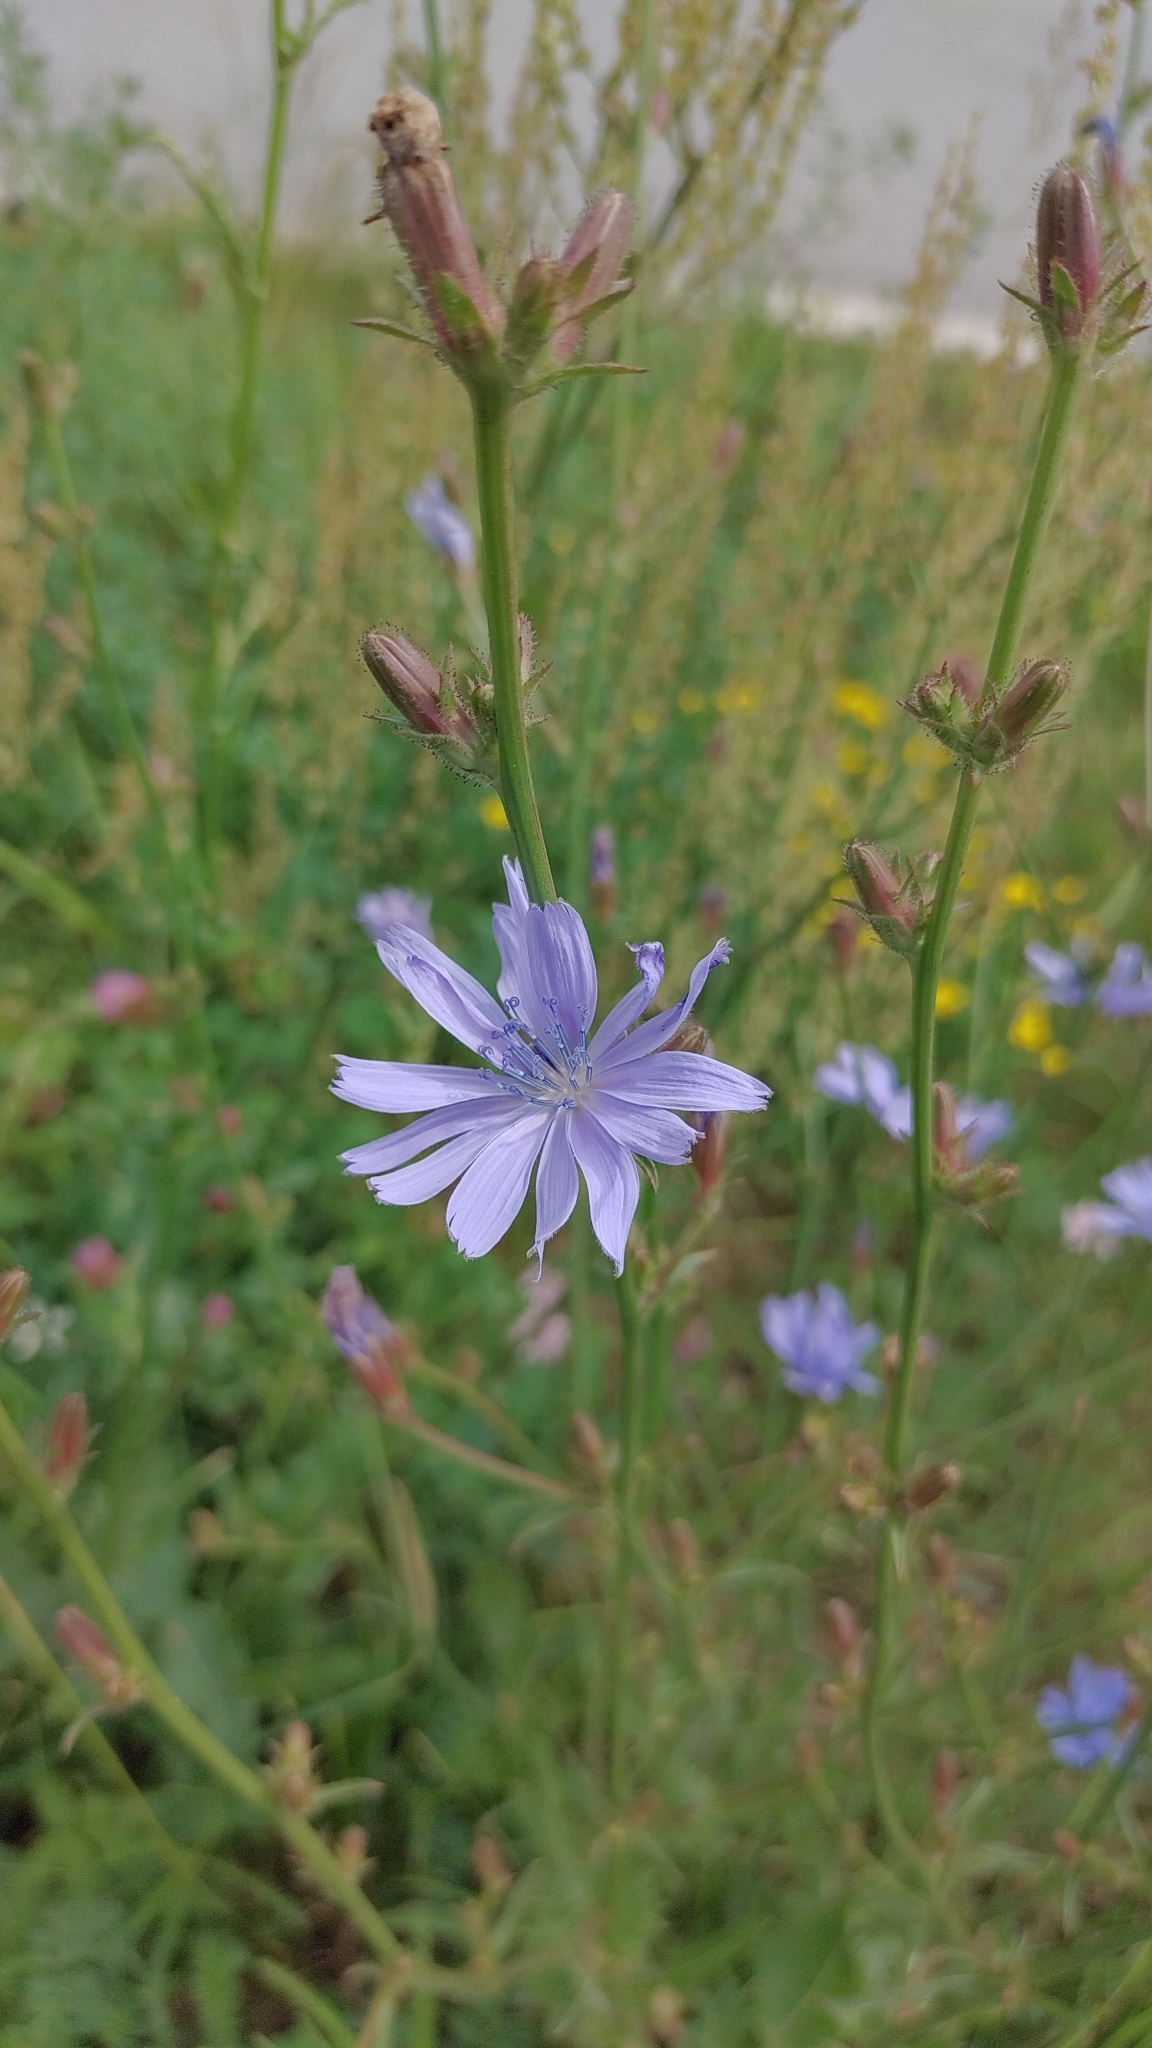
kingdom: Plantae
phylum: Tracheophyta
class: Magnoliopsida
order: Asterales
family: Asteraceae
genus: Cichorium
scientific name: Cichorium intybus
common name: Chicory
